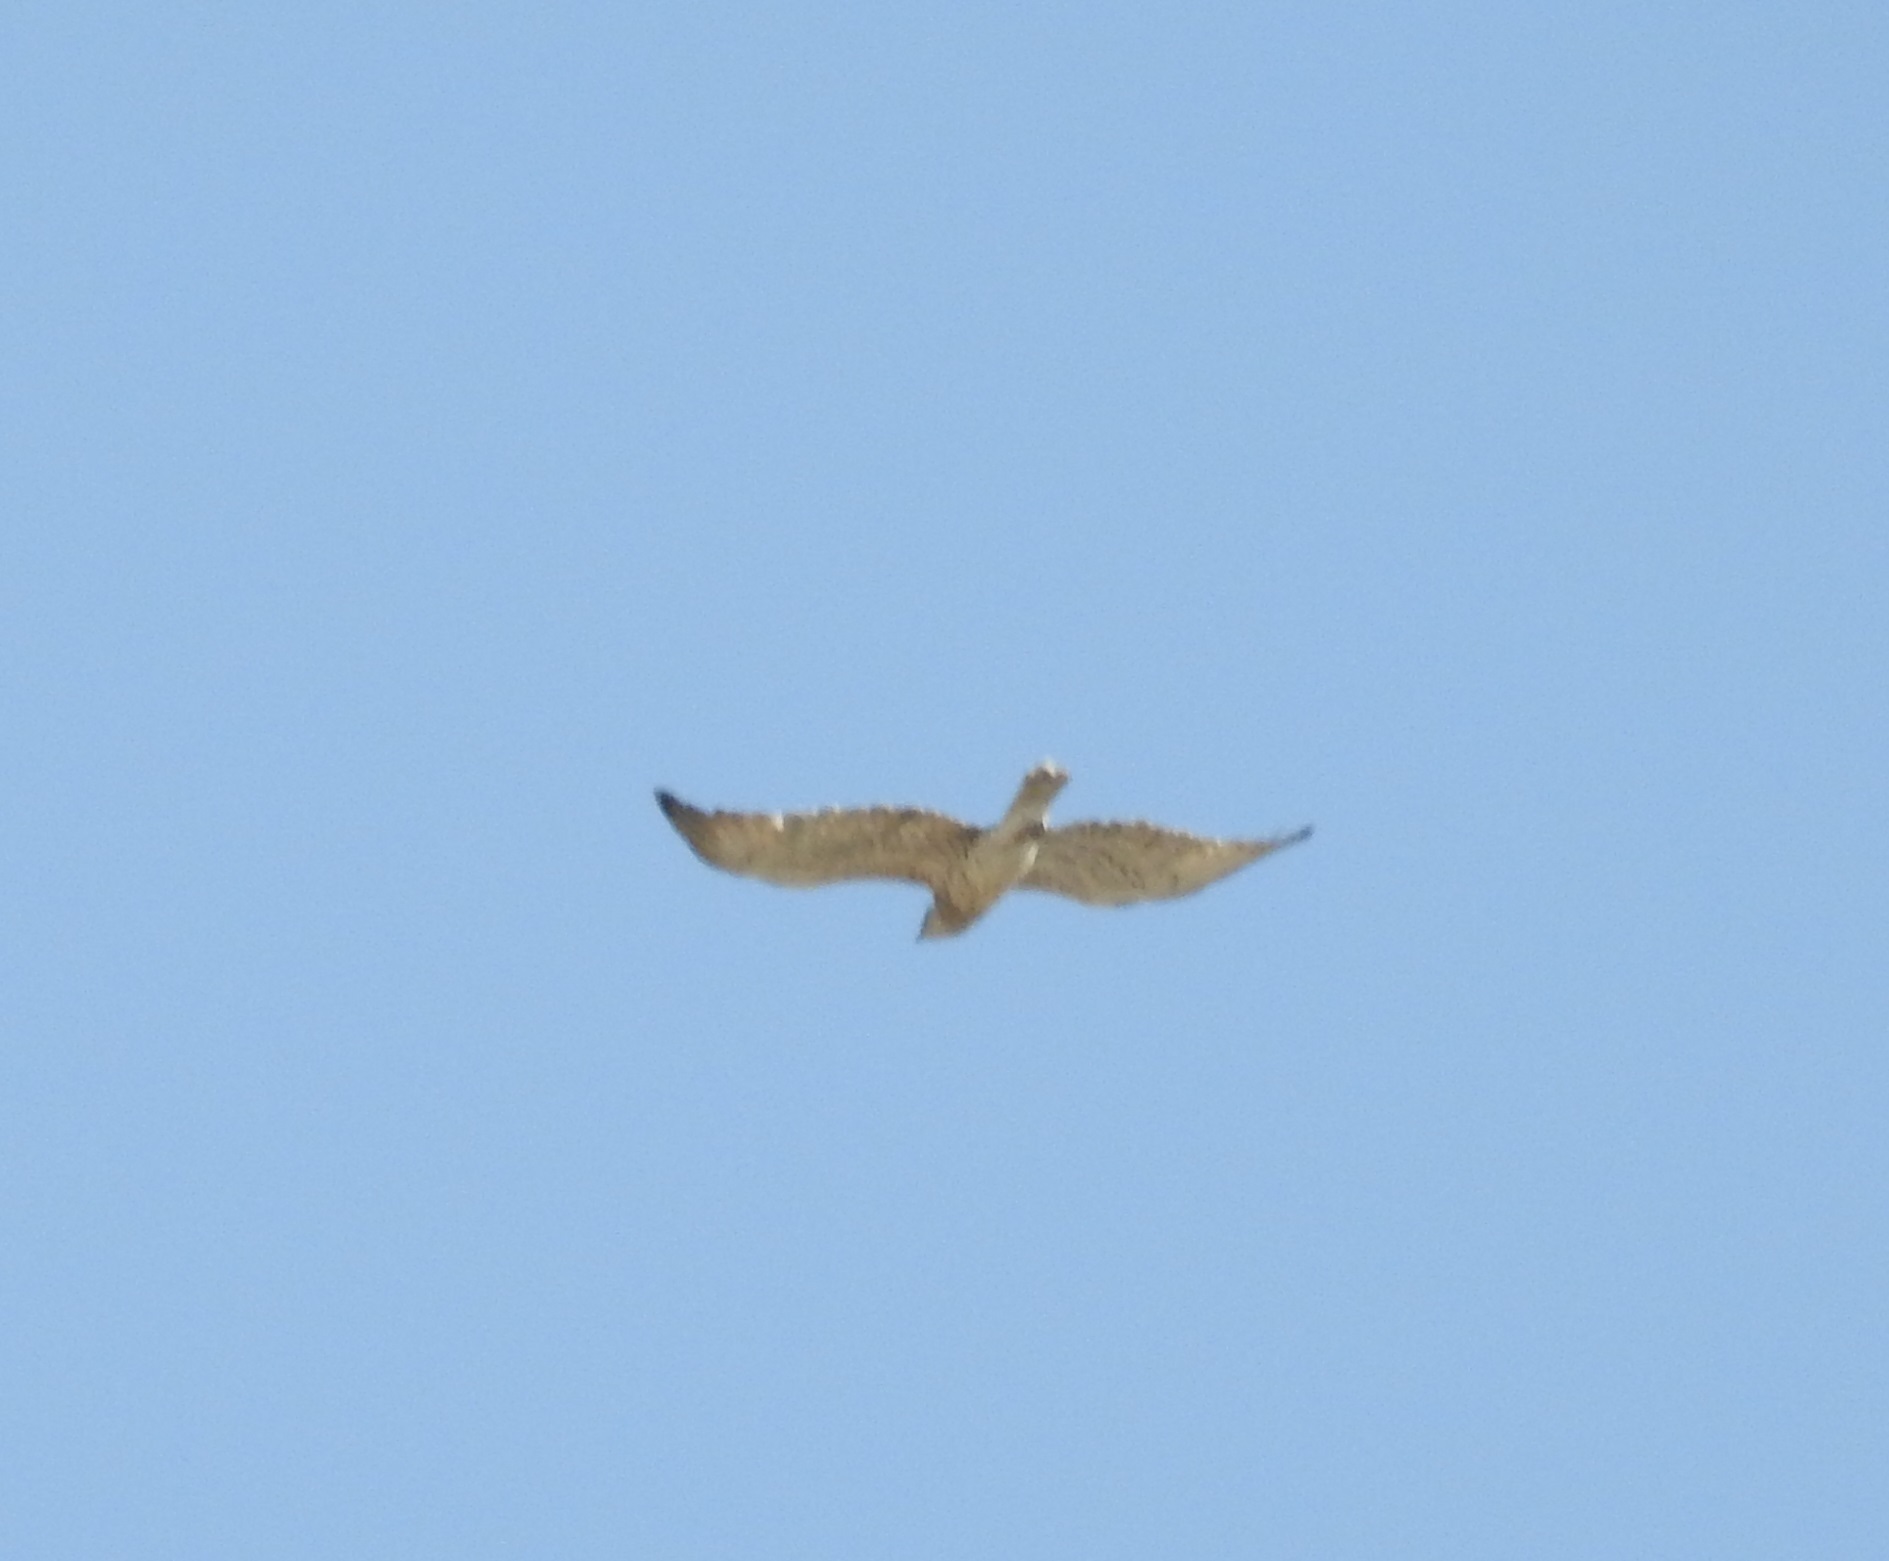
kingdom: Animalia
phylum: Chordata
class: Aves
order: Accipitriformes
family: Accipitridae
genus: Circaetus
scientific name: Circaetus gallicus
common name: Short-toed snake eagle
